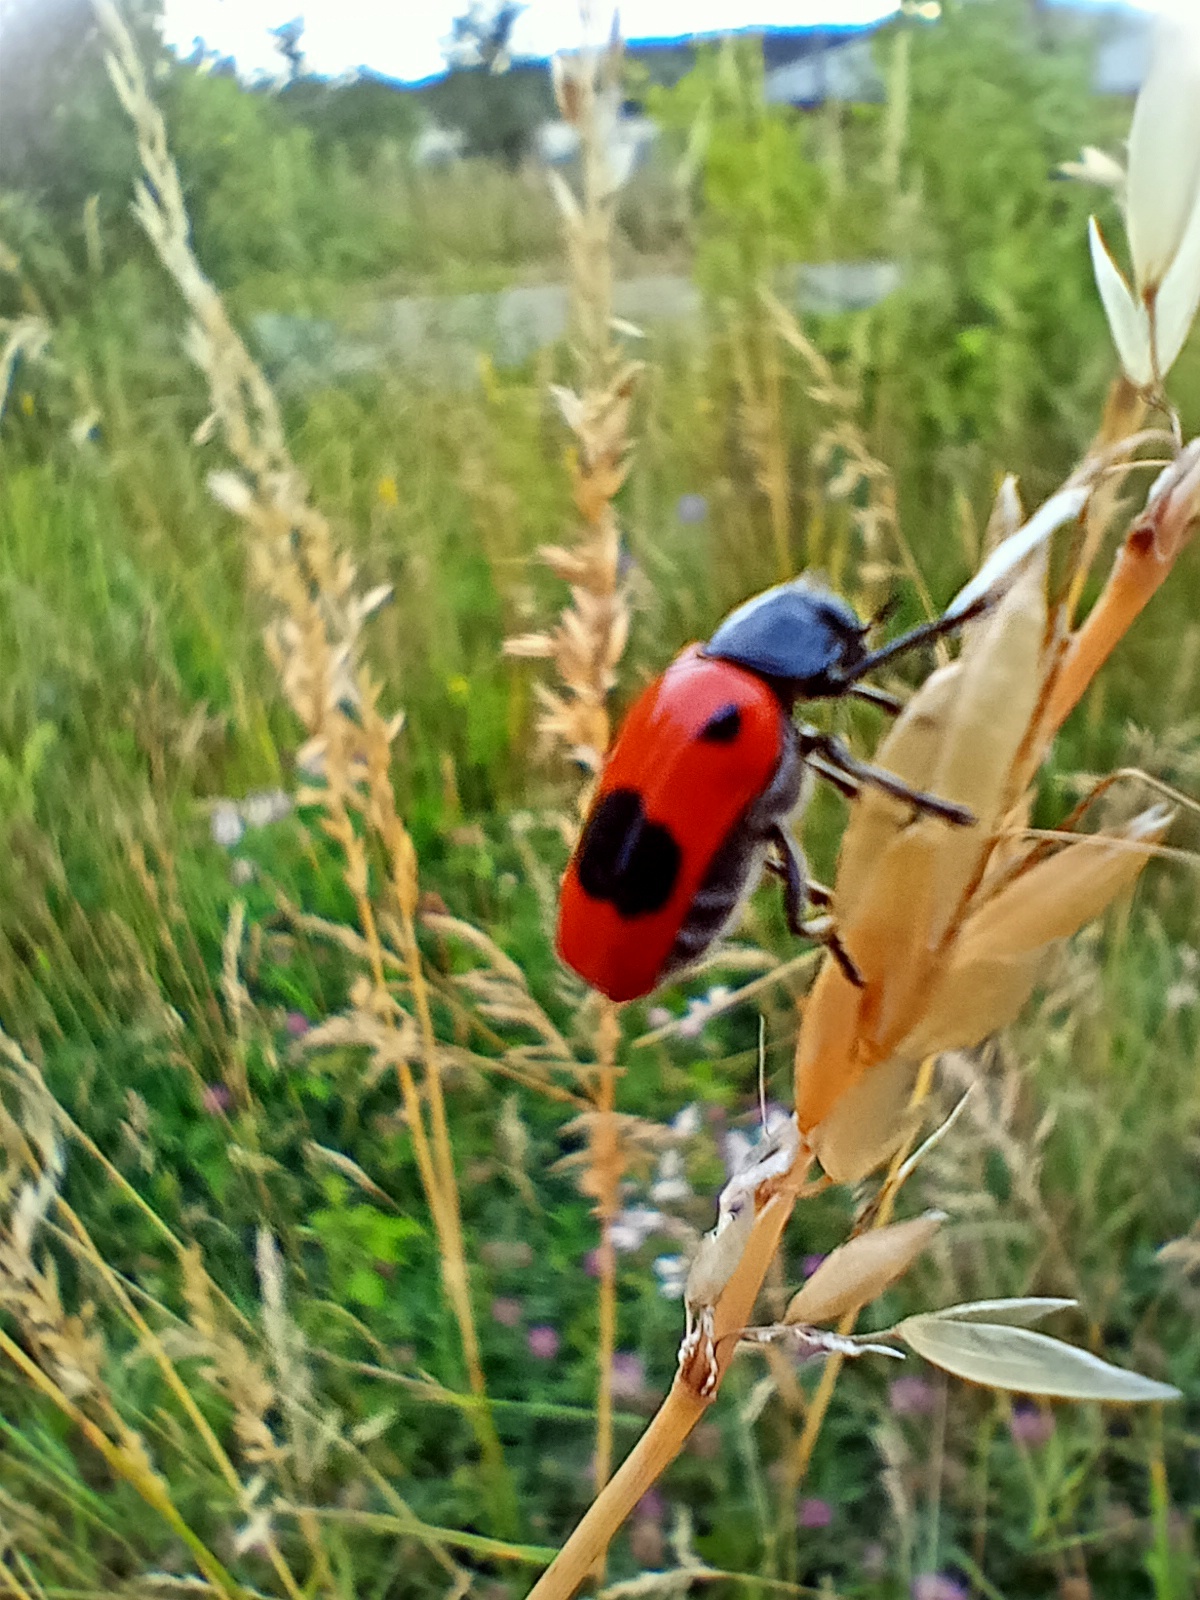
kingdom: Animalia
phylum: Arthropoda
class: Insecta
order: Coleoptera
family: Chrysomelidae
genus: Clytra
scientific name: Clytra laeviuscula
